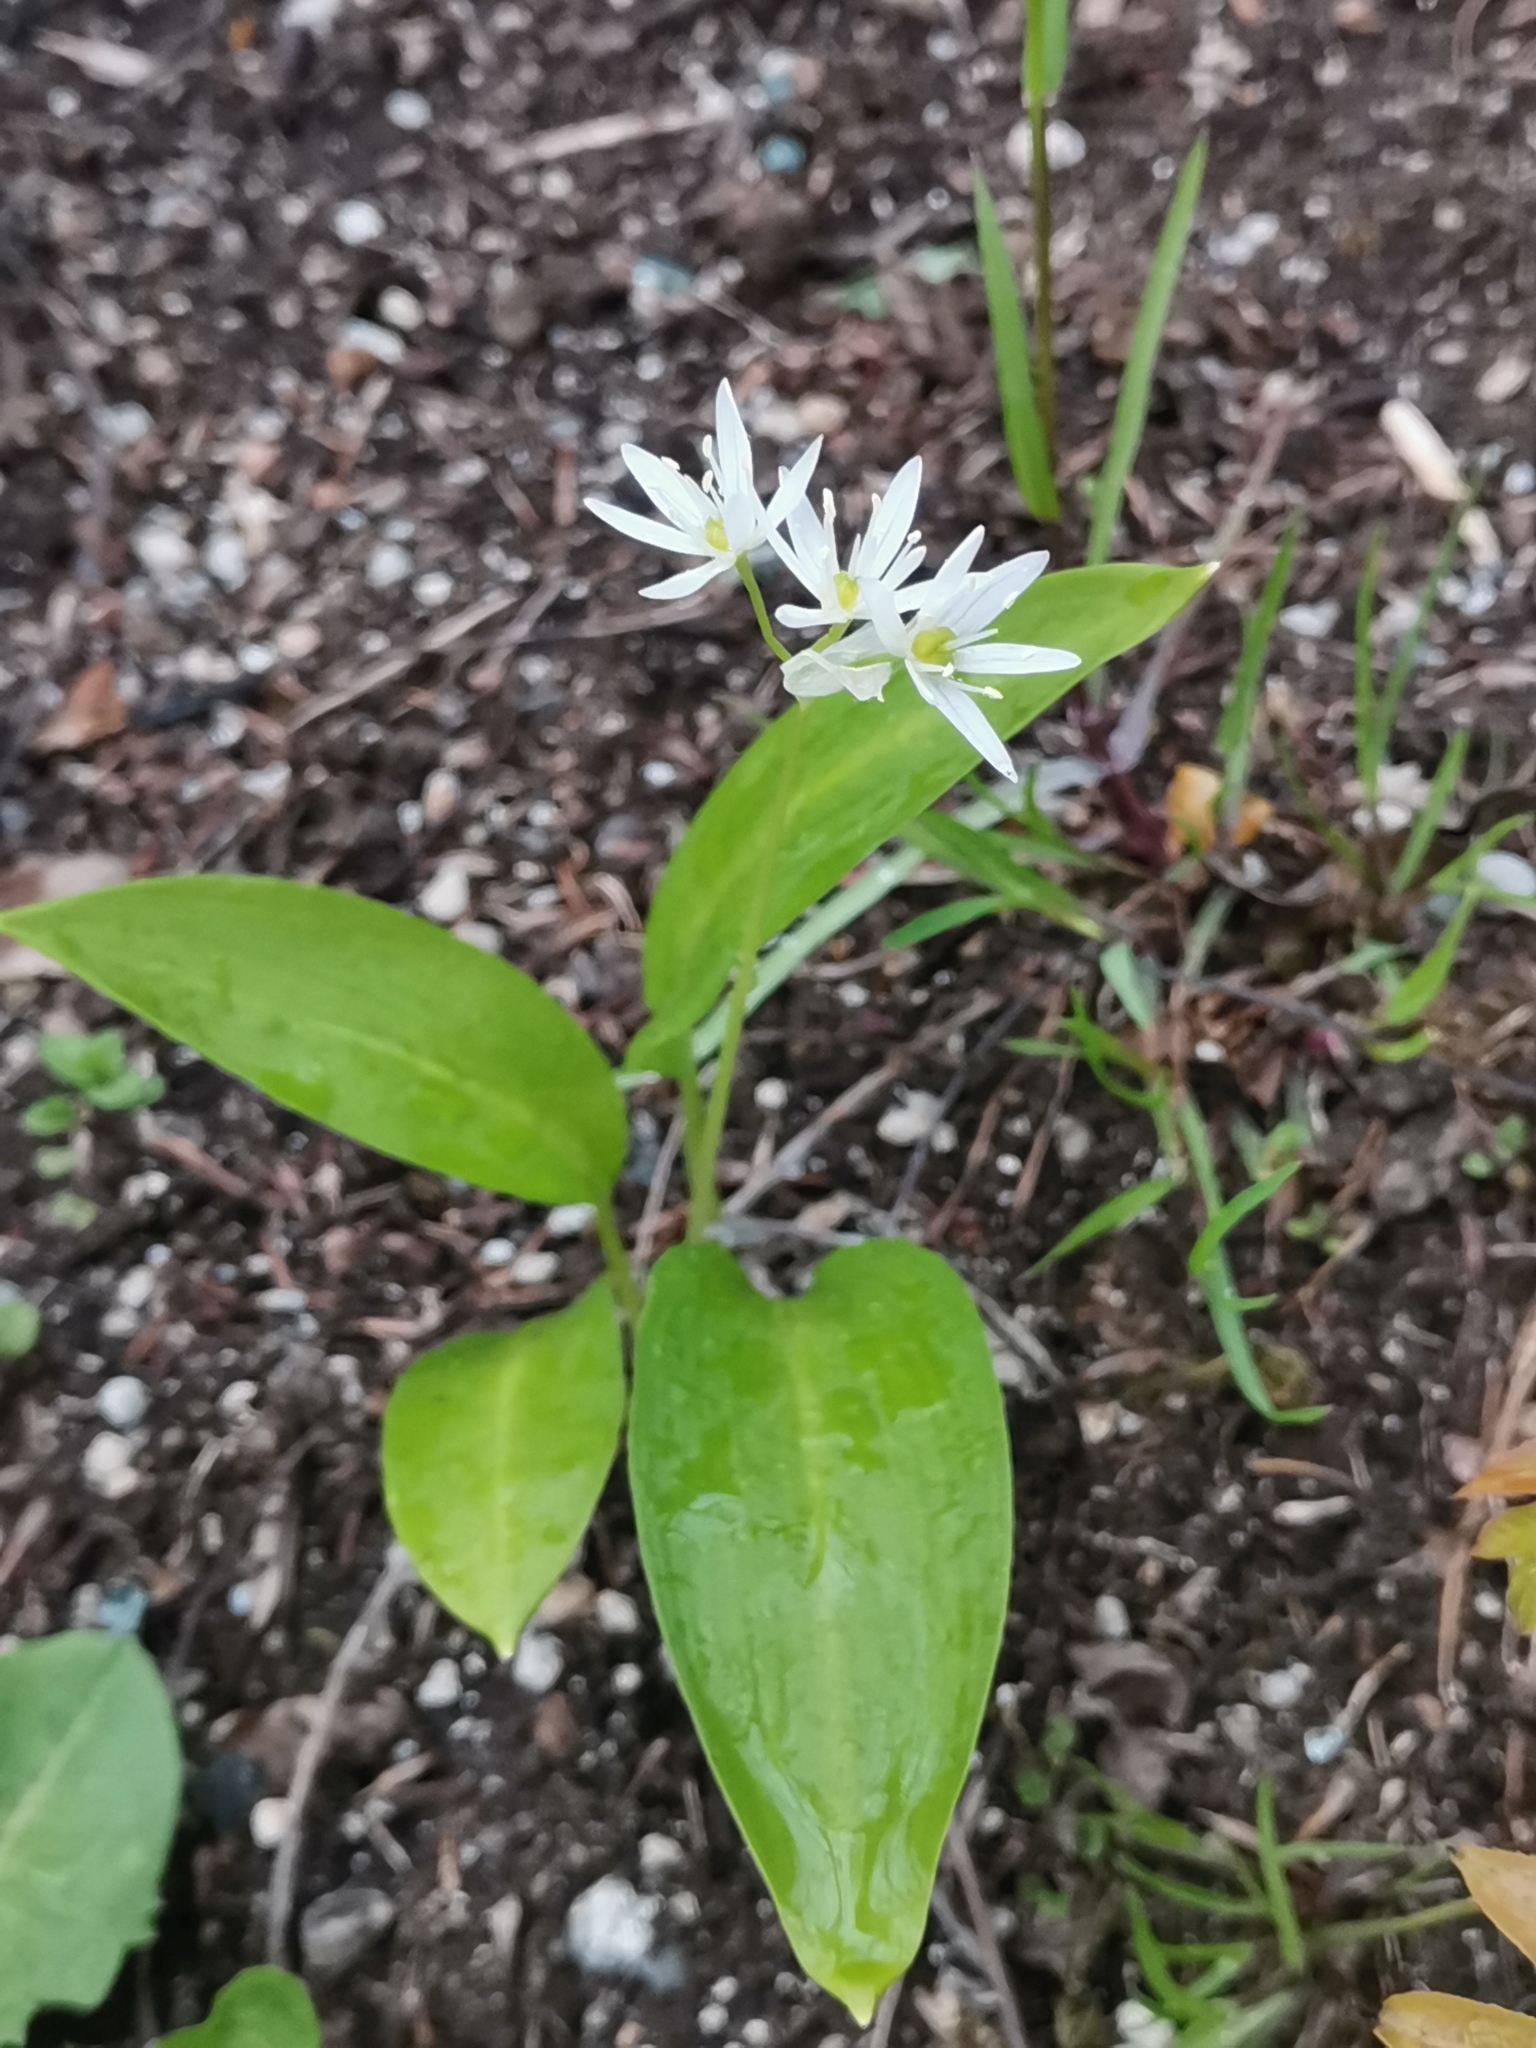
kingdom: Plantae
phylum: Tracheophyta
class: Liliopsida
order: Asparagales
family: Amaryllidaceae
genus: Allium
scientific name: Allium ursinum
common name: Ramsons
